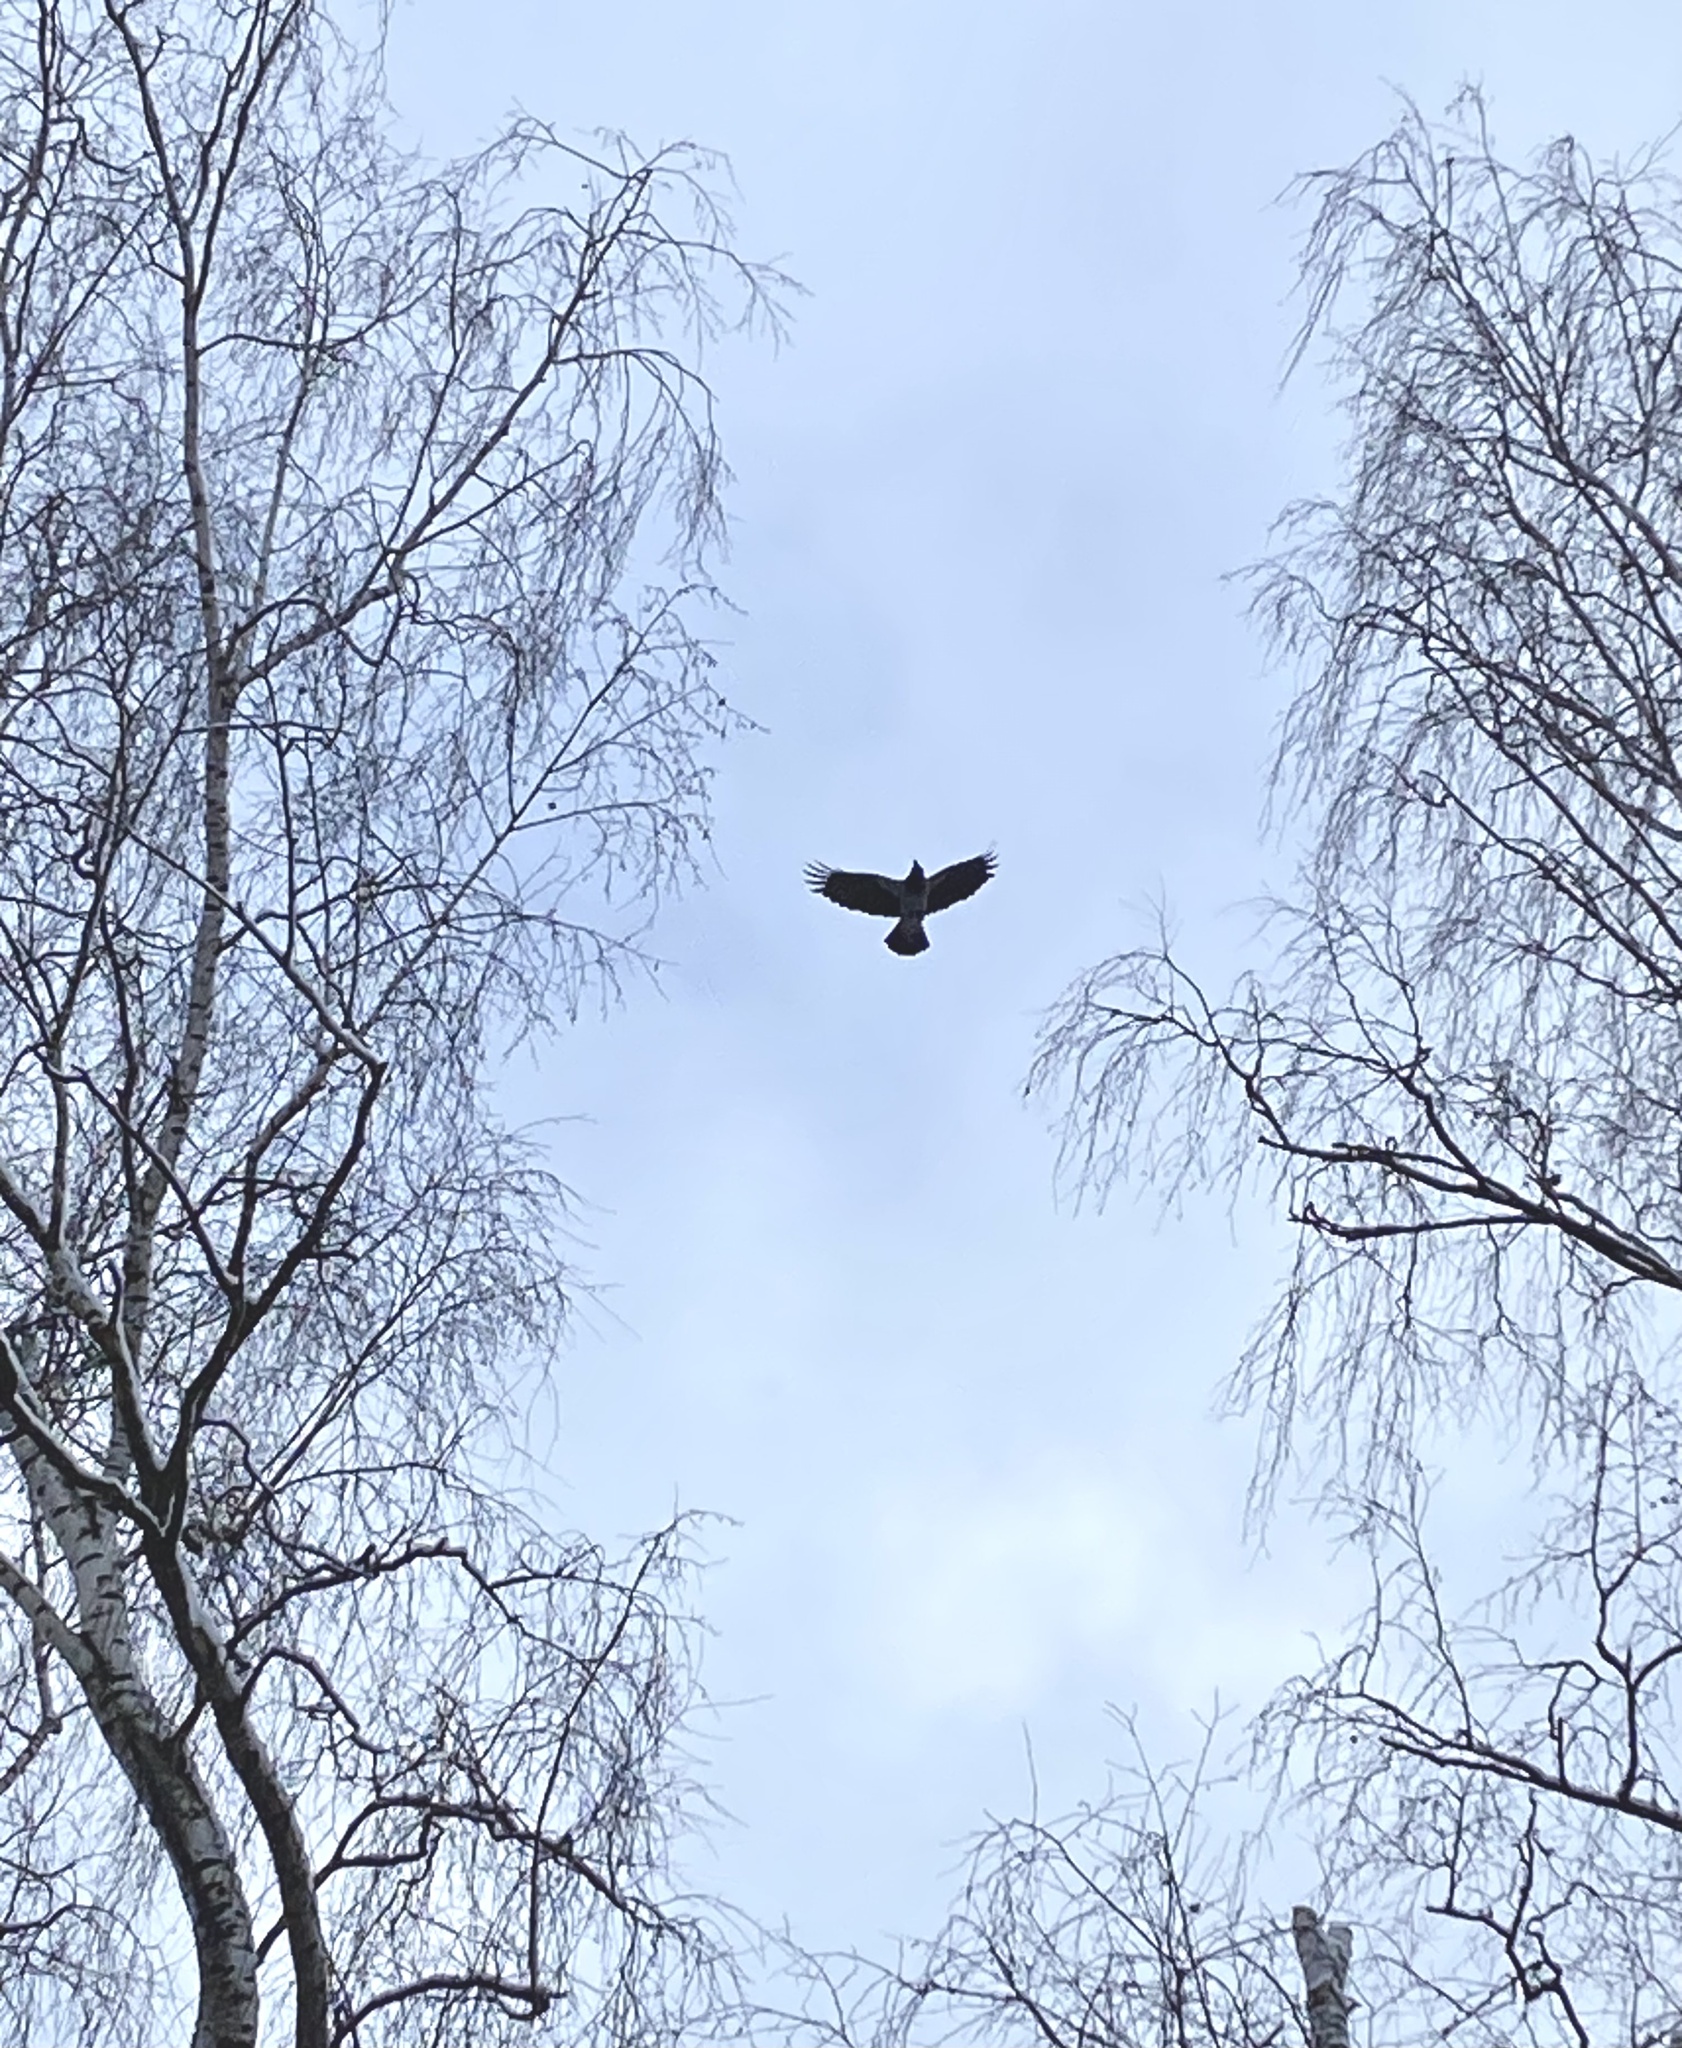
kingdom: Animalia
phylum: Chordata
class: Aves
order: Passeriformes
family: Corvidae
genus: Corvus
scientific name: Corvus cornix
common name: Hooded crow
